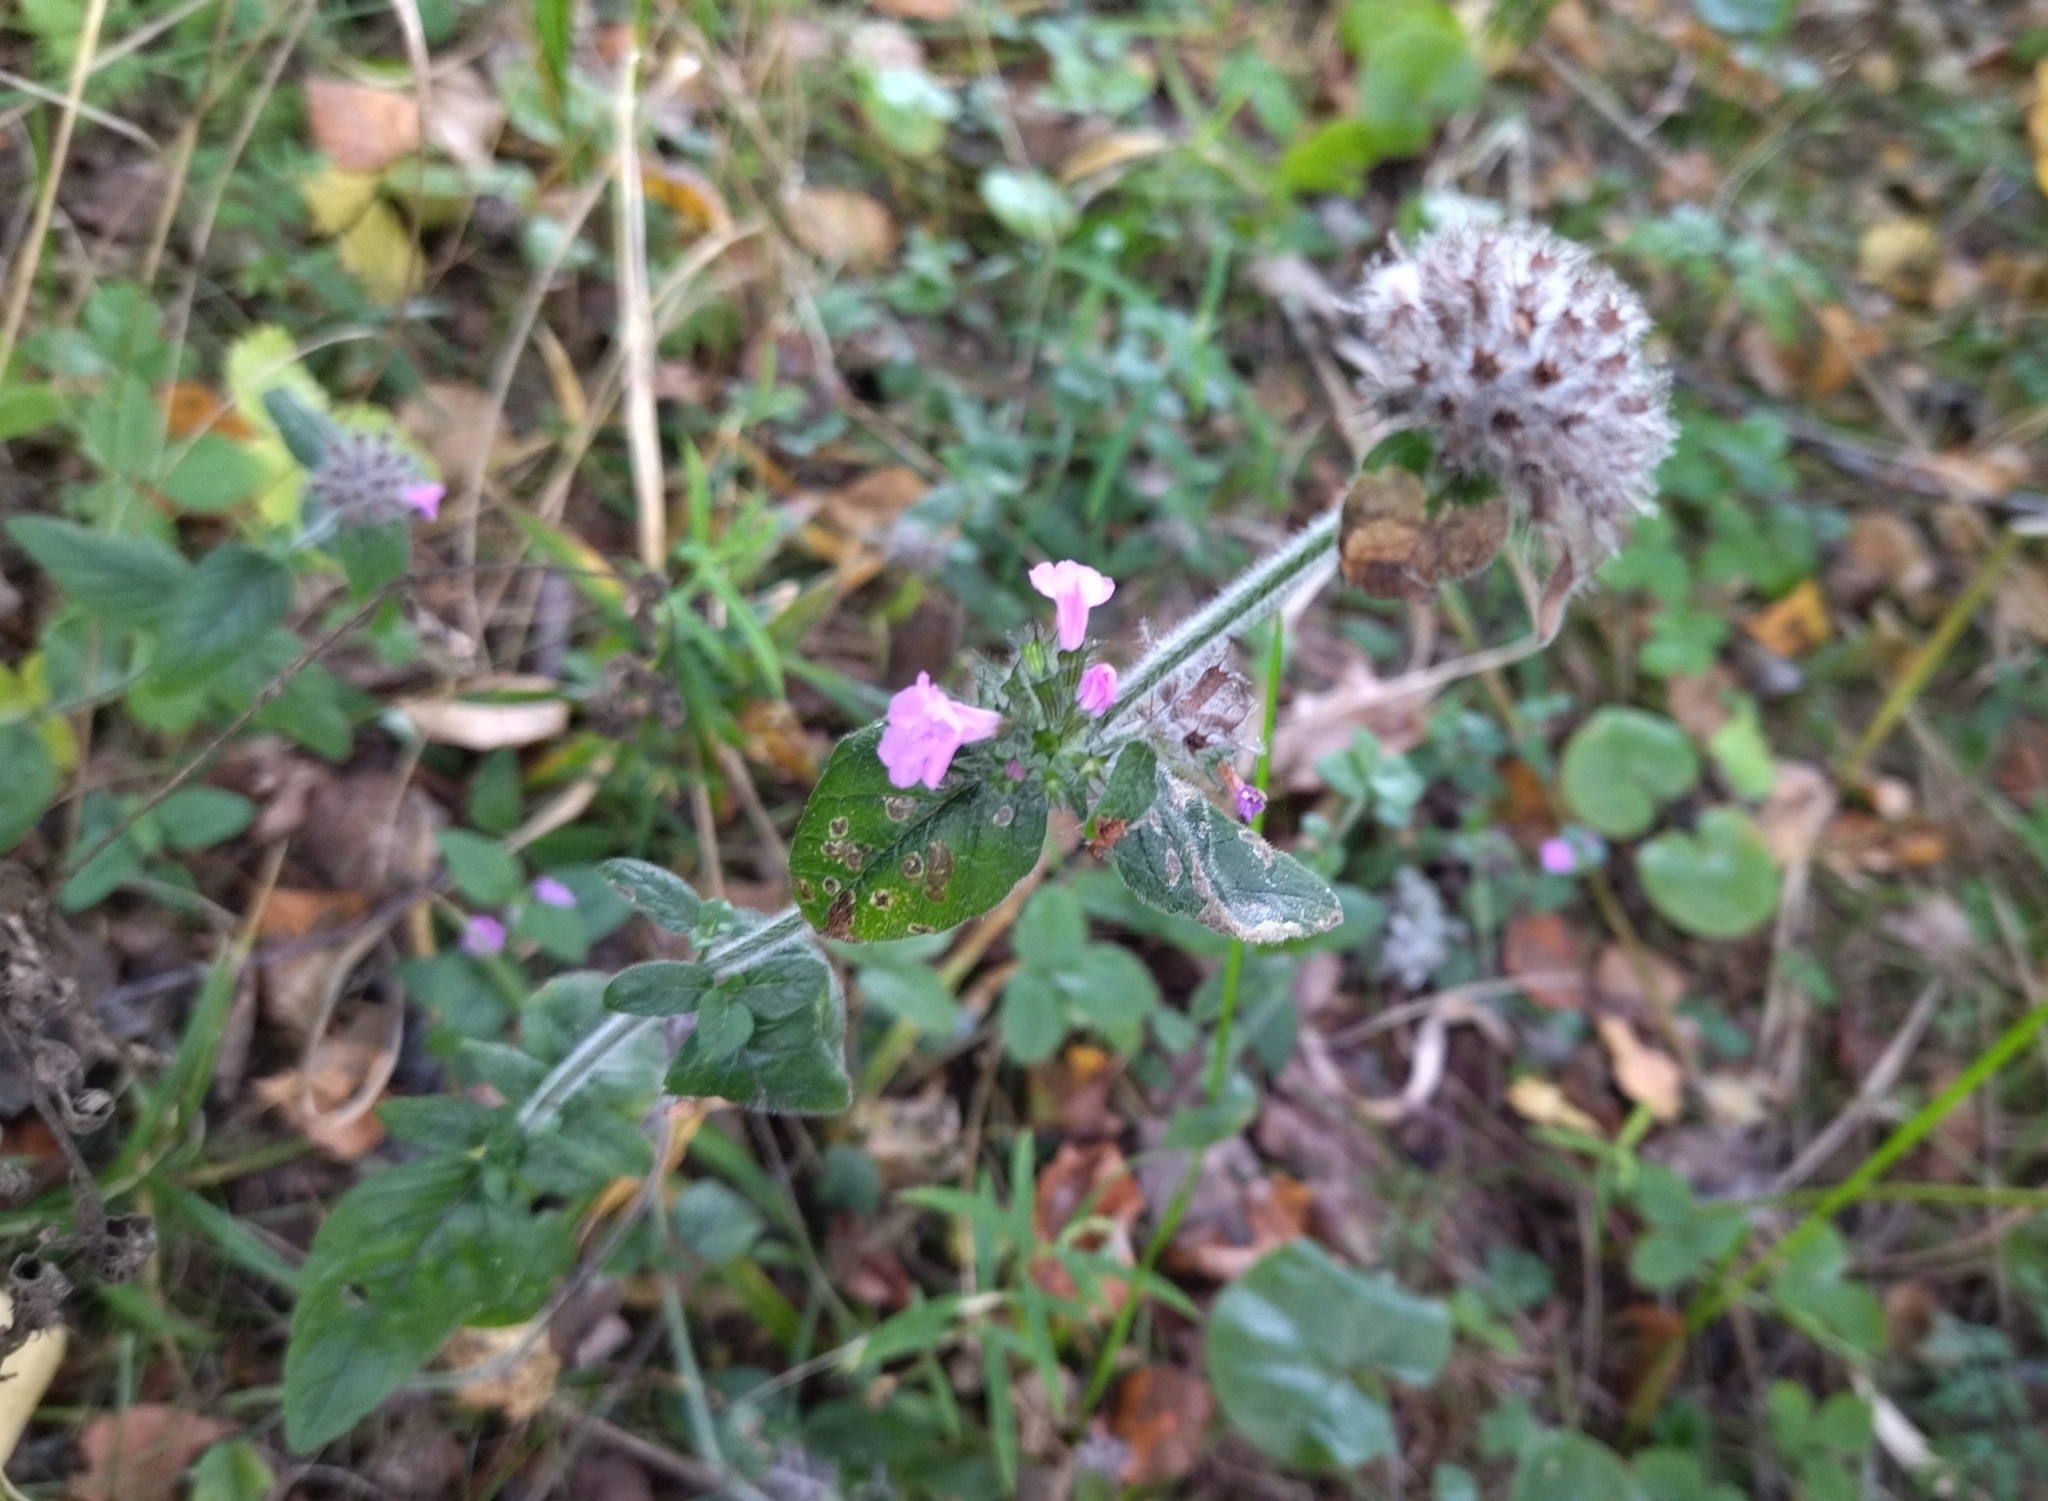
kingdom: Plantae
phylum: Tracheophyta
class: Magnoliopsida
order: Lamiales
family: Lamiaceae
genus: Clinopodium
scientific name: Clinopodium vulgare
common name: Wild basil
